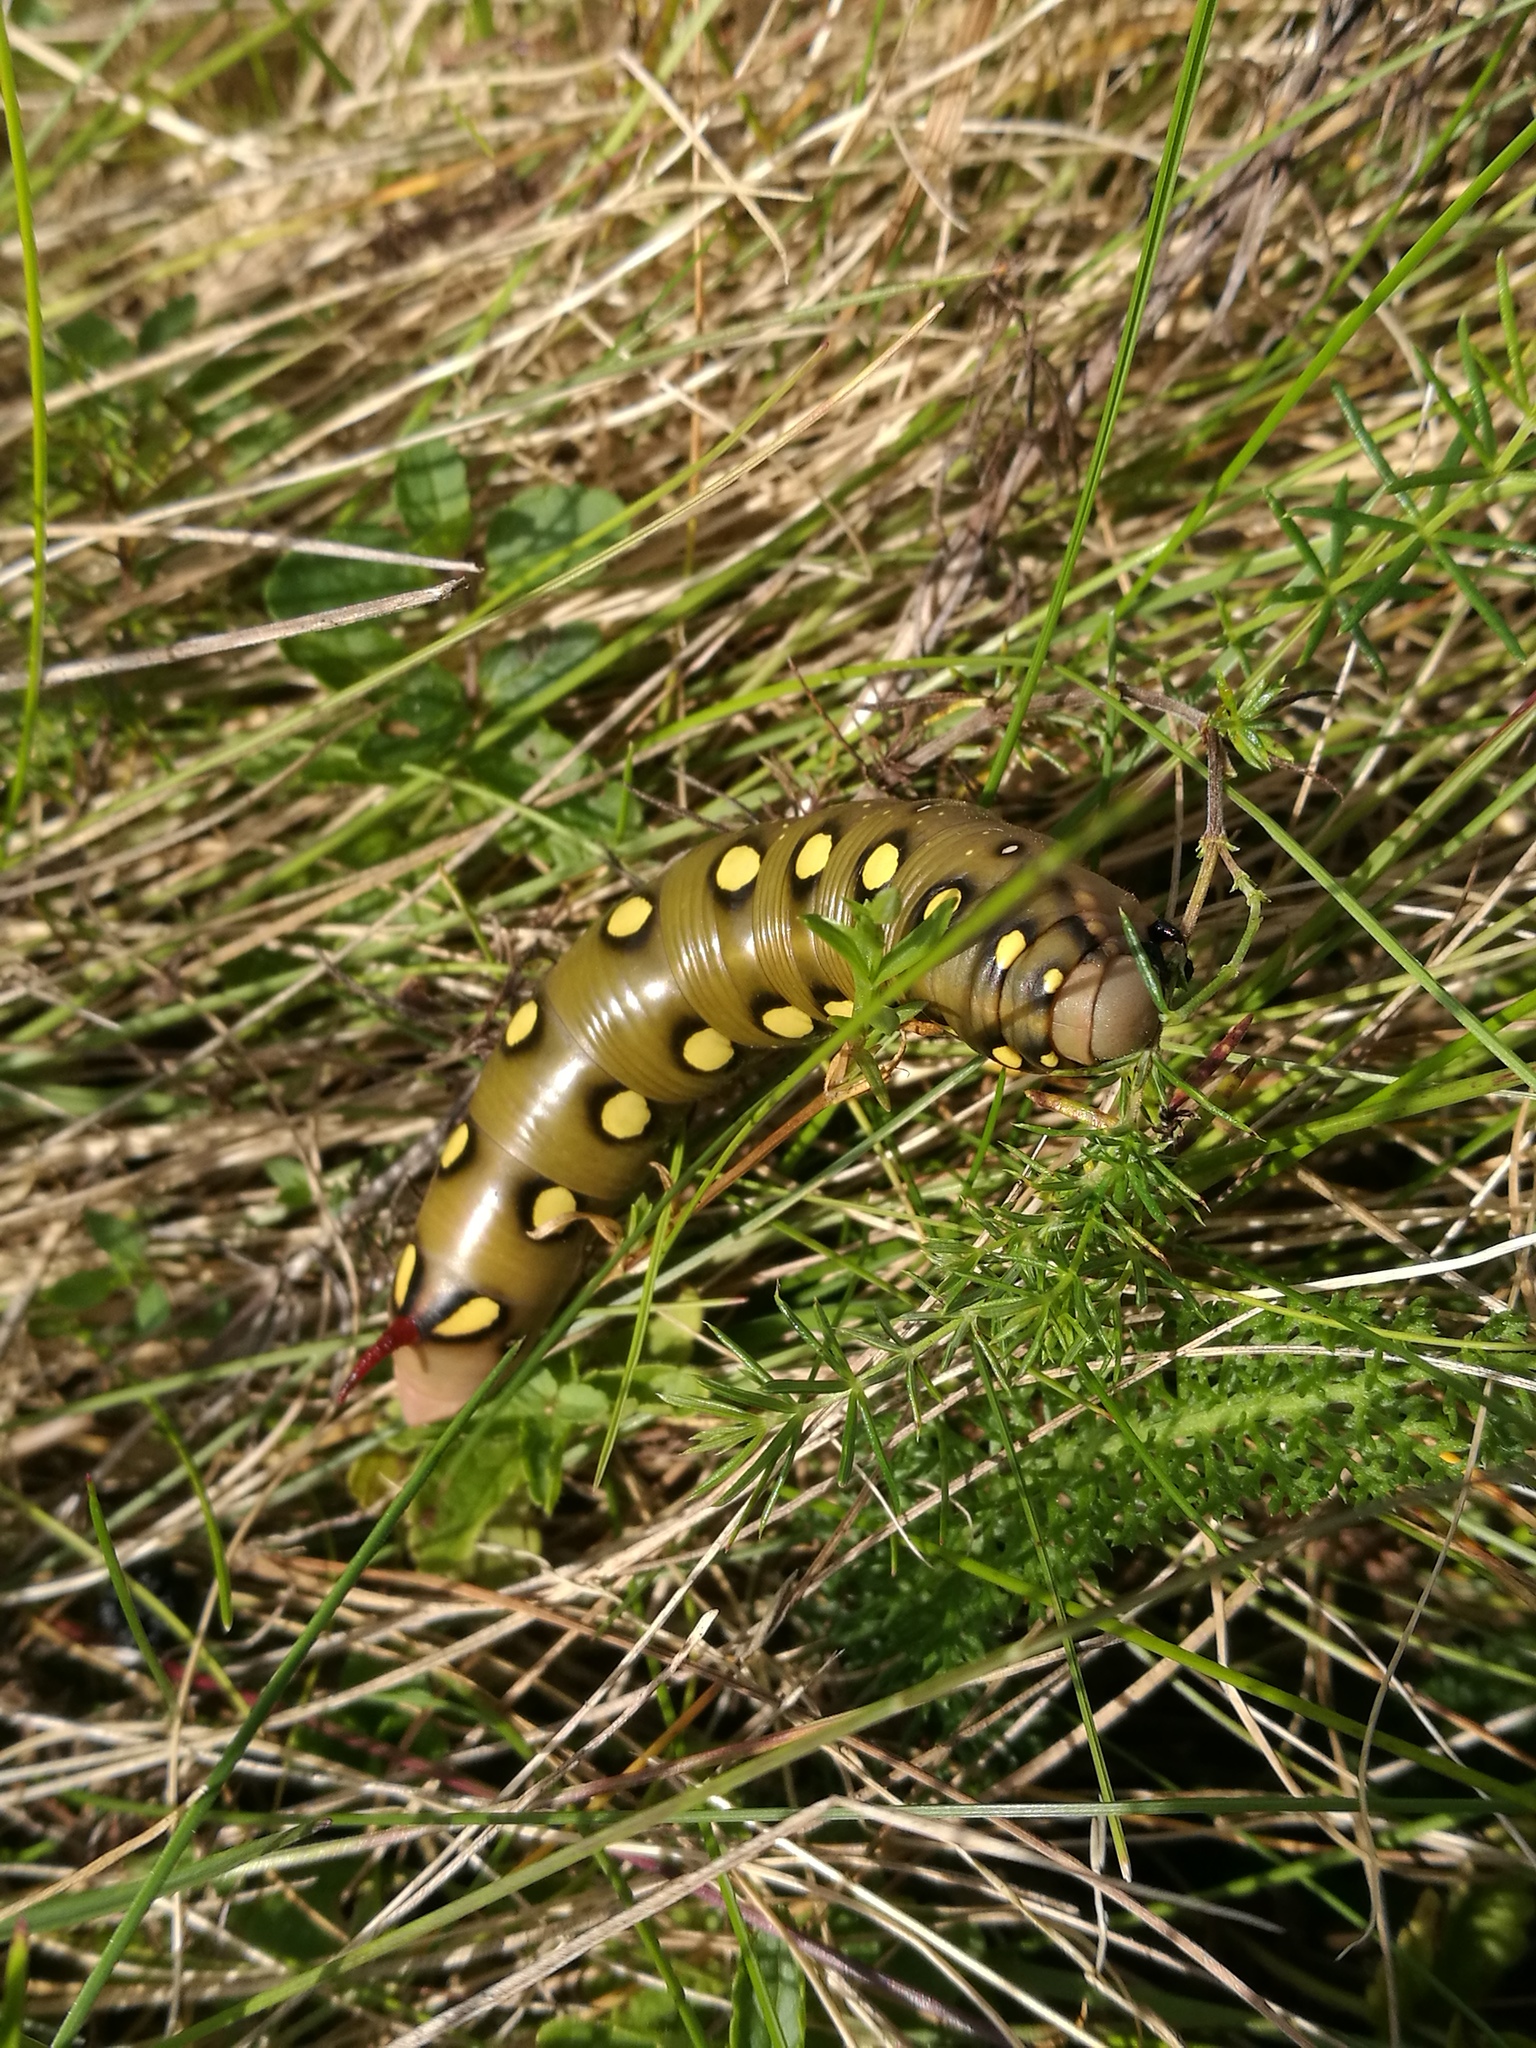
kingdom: Animalia
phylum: Arthropoda
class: Insecta
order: Lepidoptera
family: Sphingidae
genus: Hyles
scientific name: Hyles gallii
